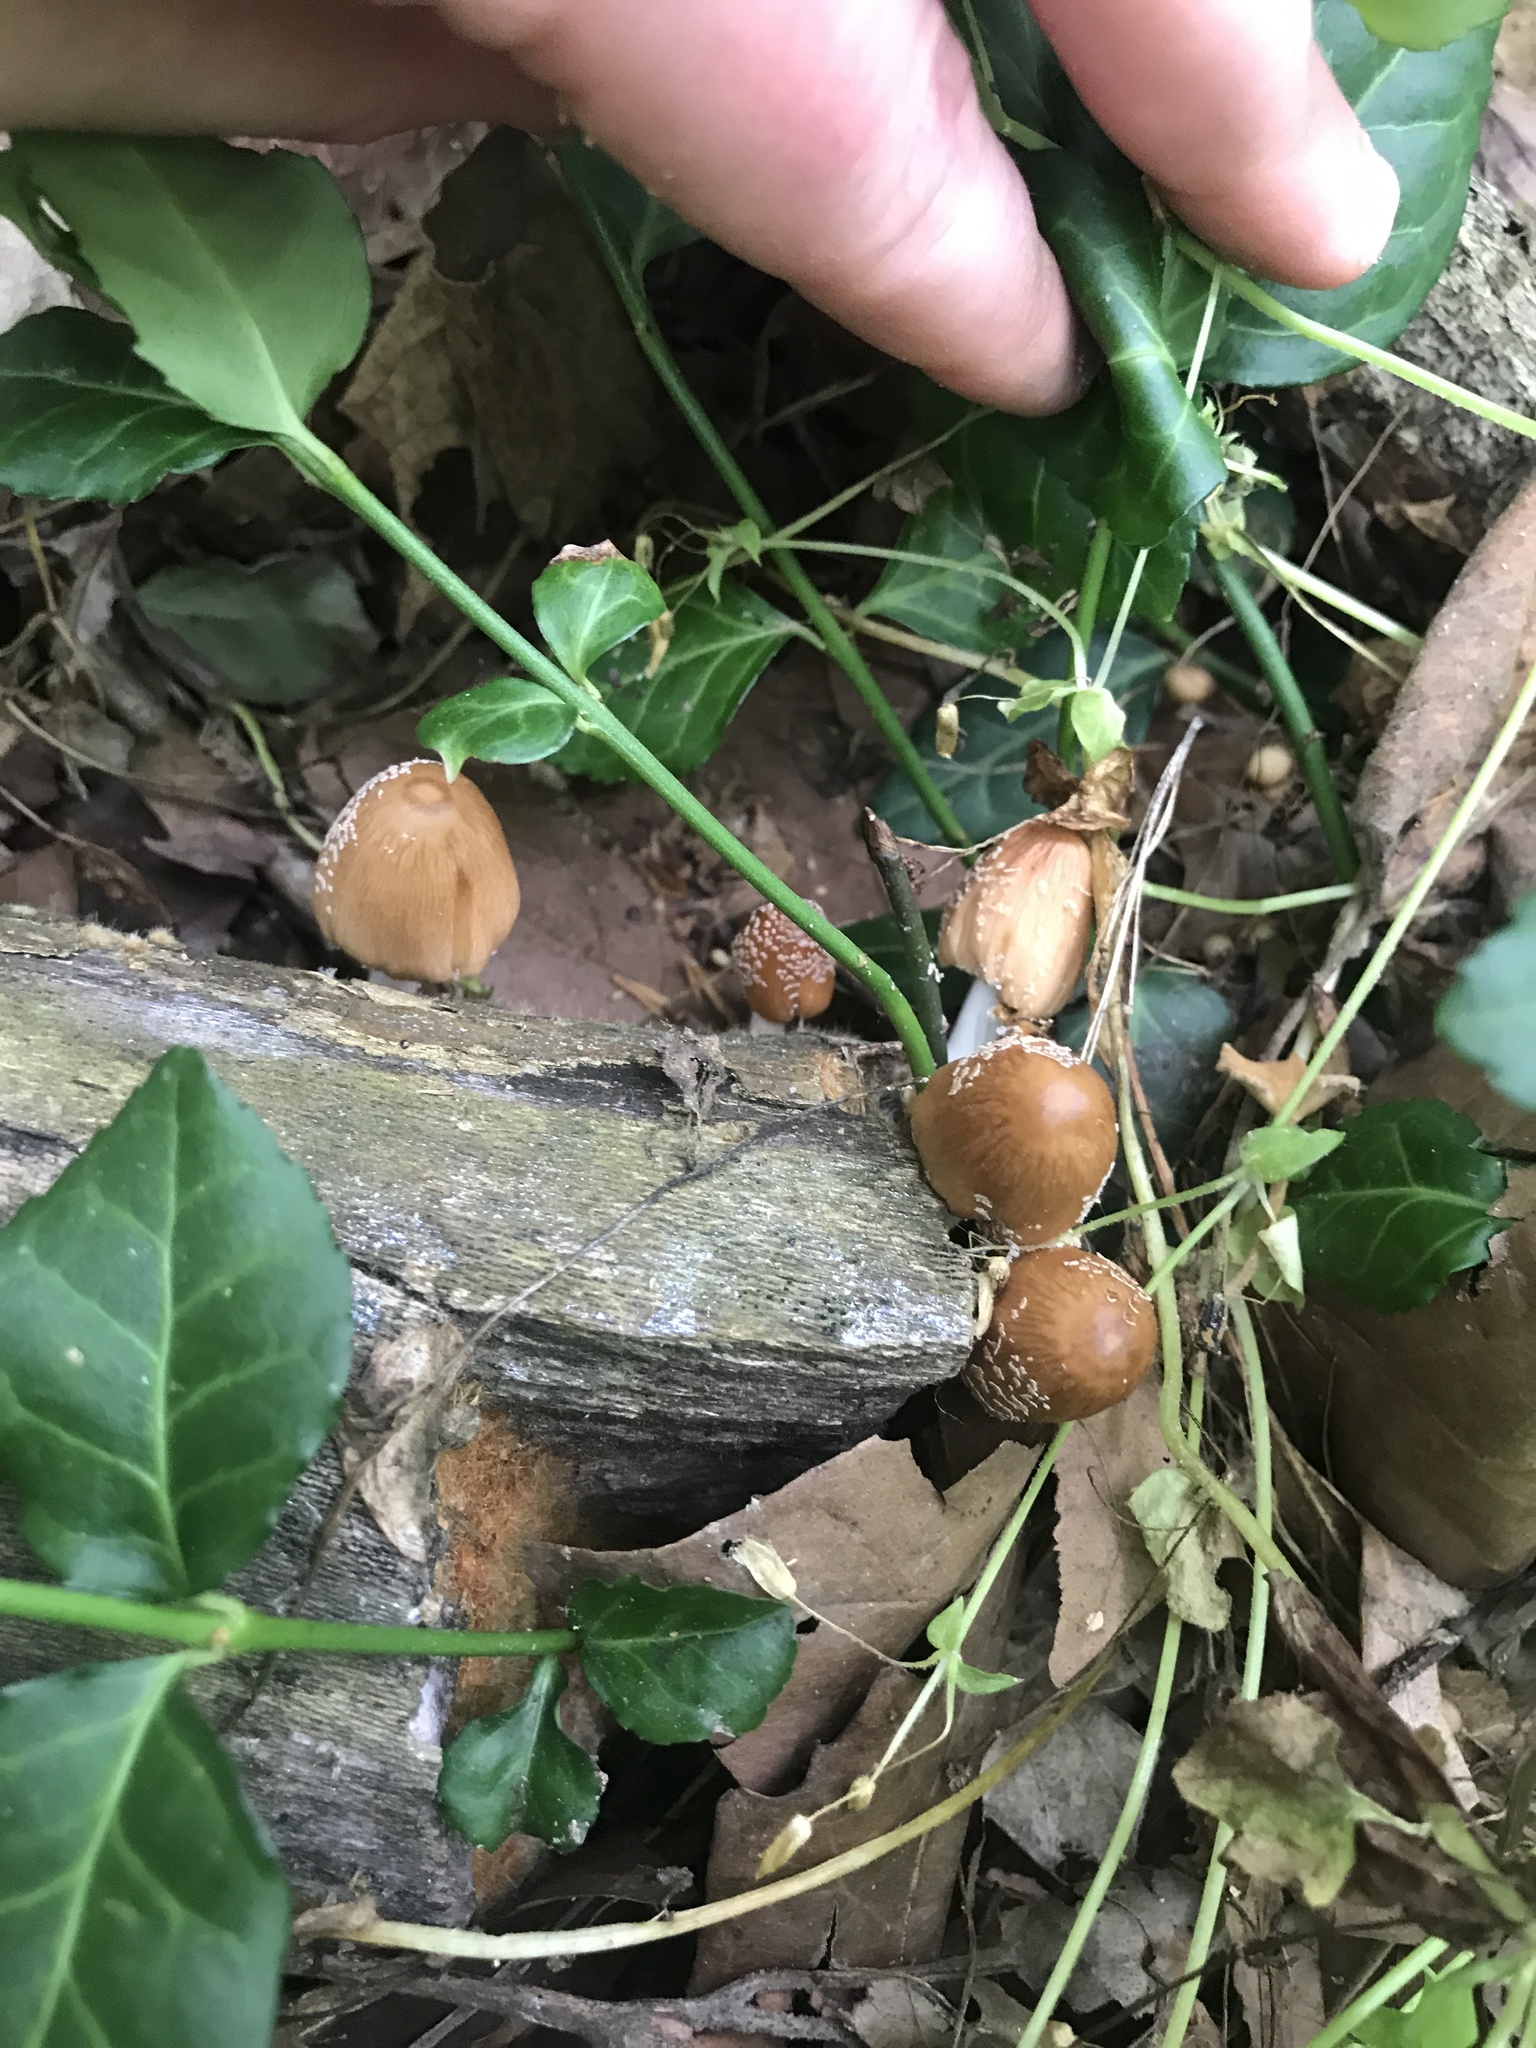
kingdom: Fungi
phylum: Basidiomycota
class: Agaricomycetes
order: Agaricales
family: Psathyrellaceae
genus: Coprinellus
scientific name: Coprinellus domesticus
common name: Firerug inkcap
